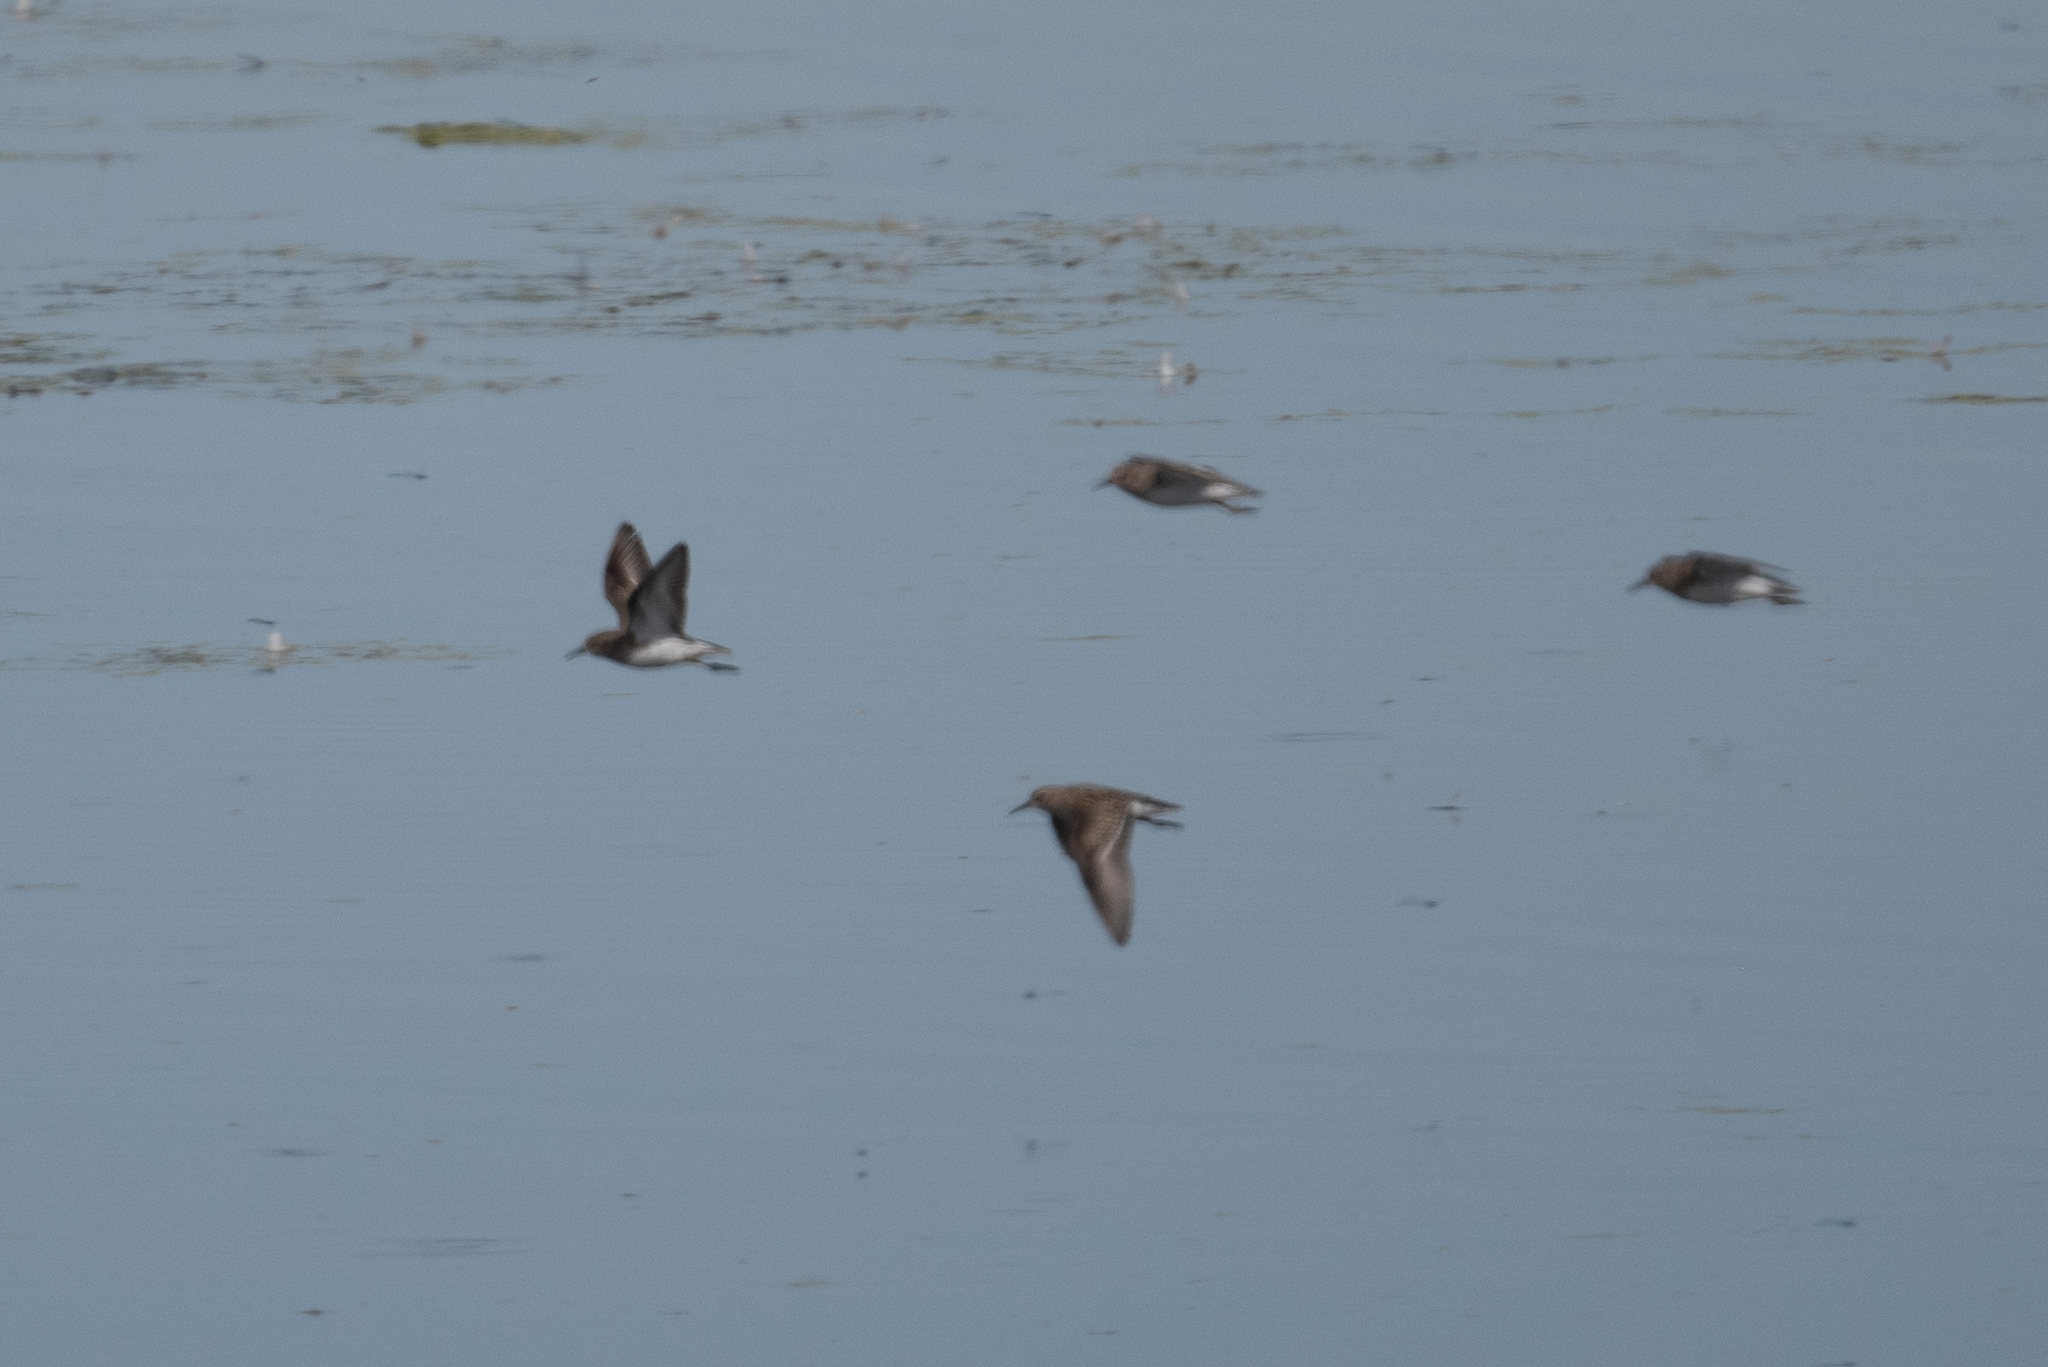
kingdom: Animalia
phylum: Chordata
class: Aves
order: Charadriiformes
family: Scolopacidae
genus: Calidris
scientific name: Calidris minutilla
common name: Least sandpiper
